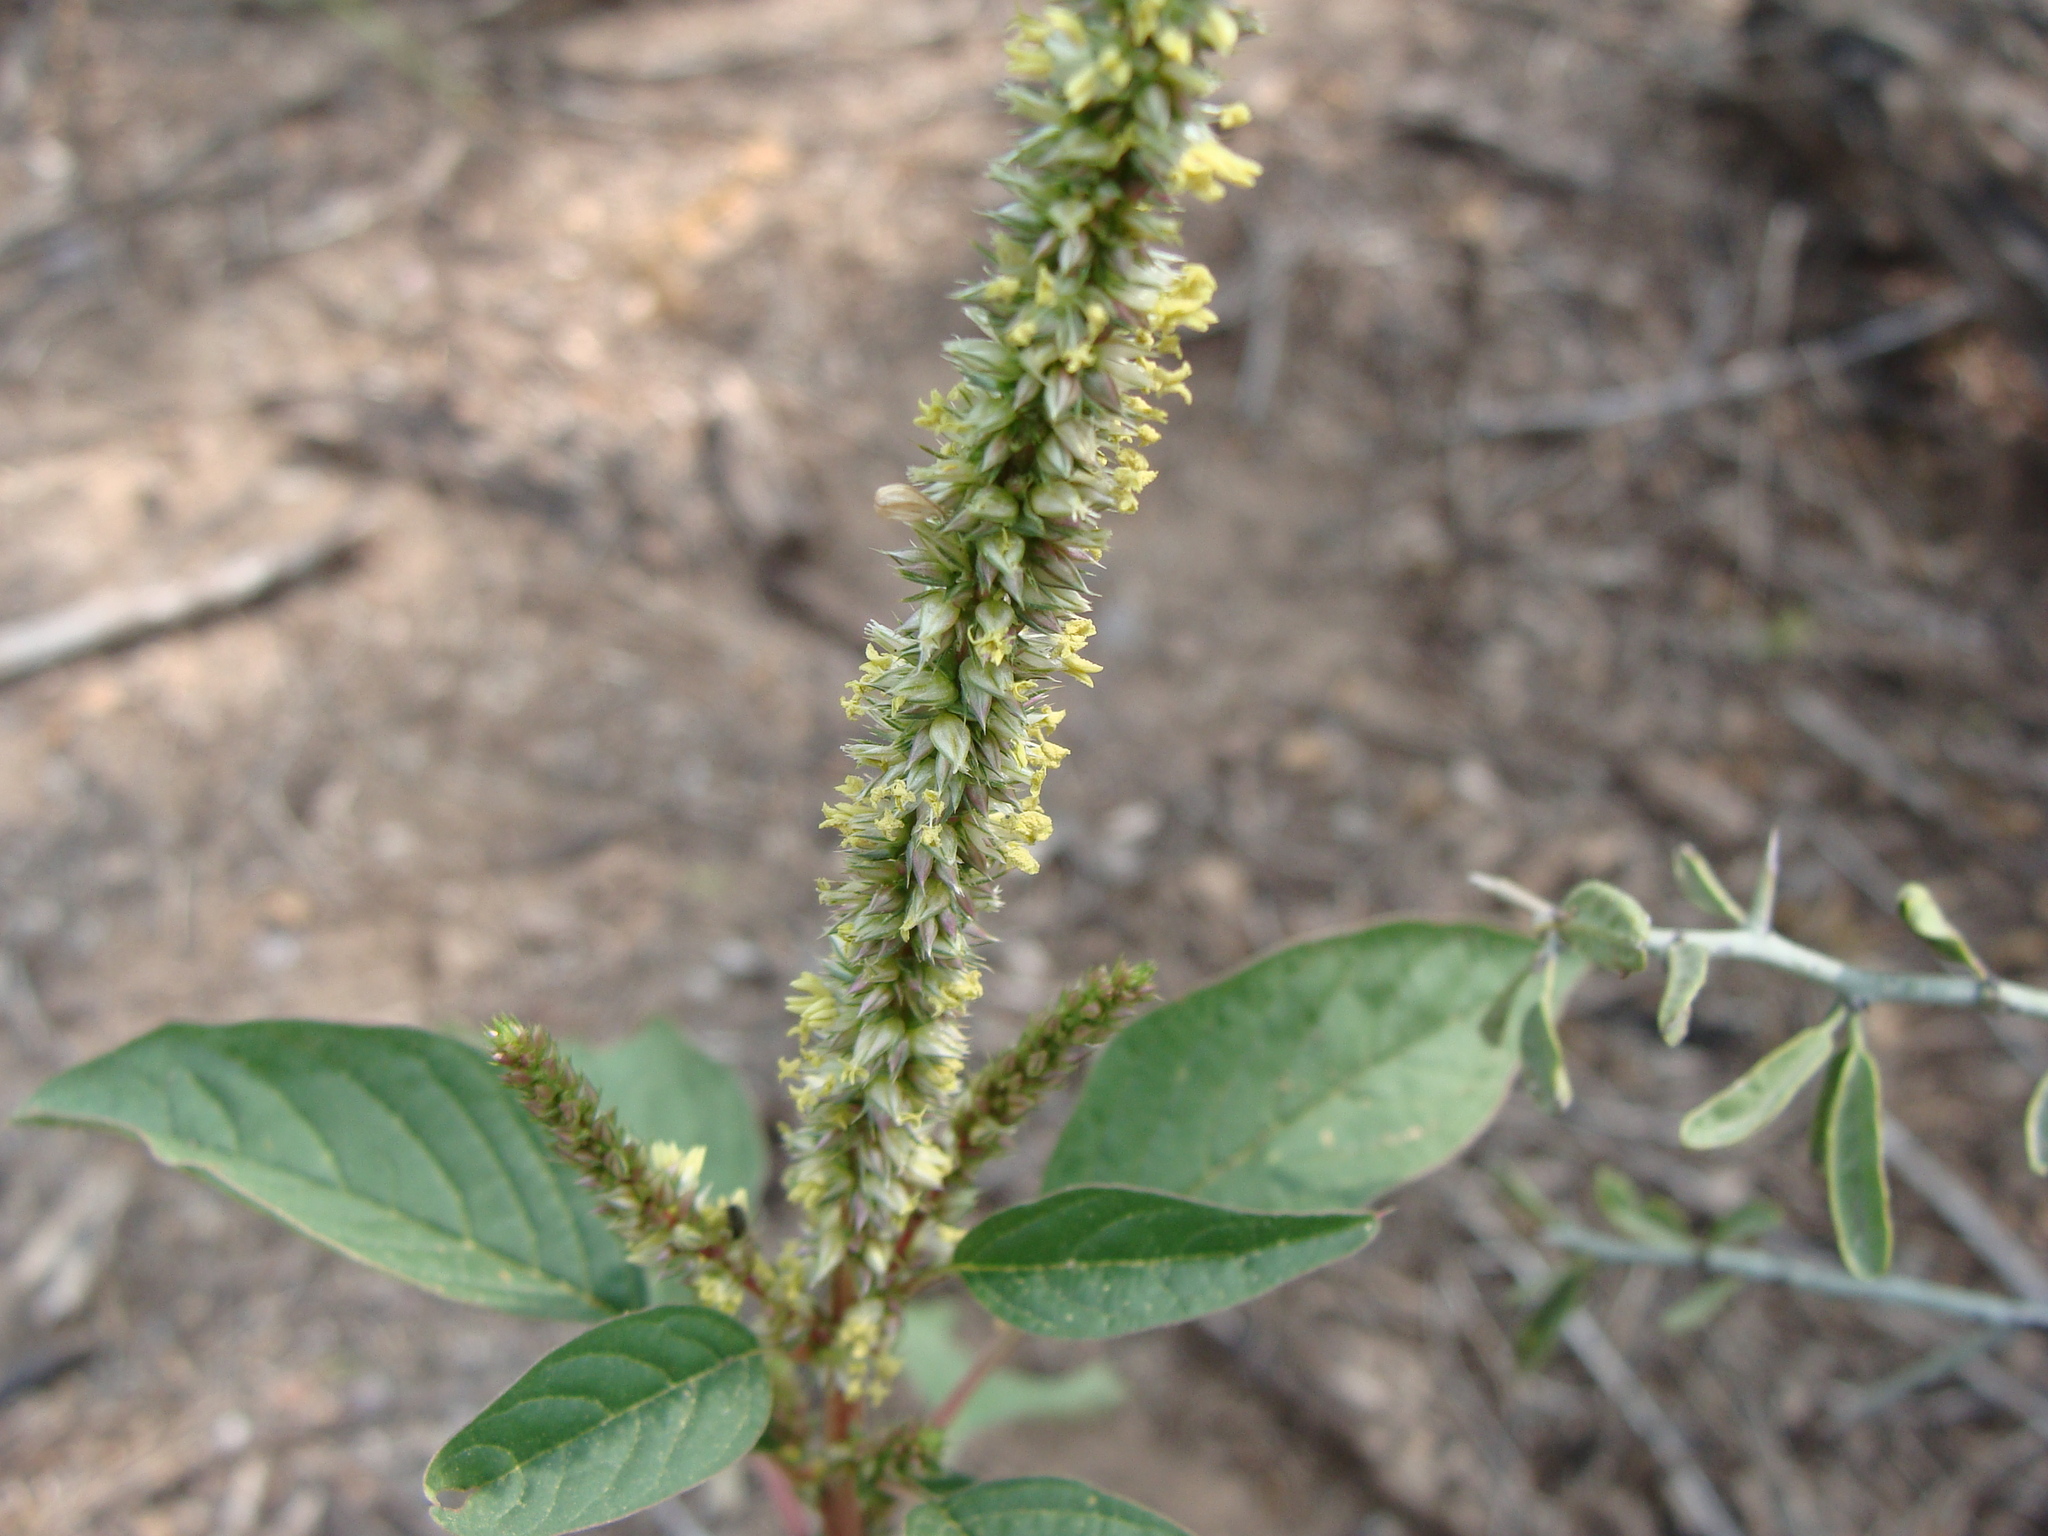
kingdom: Plantae
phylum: Tracheophyta
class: Magnoliopsida
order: Caryophyllales
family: Amaranthaceae
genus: Amaranthus
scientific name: Amaranthus palmeri
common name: Dioecious amaranth
